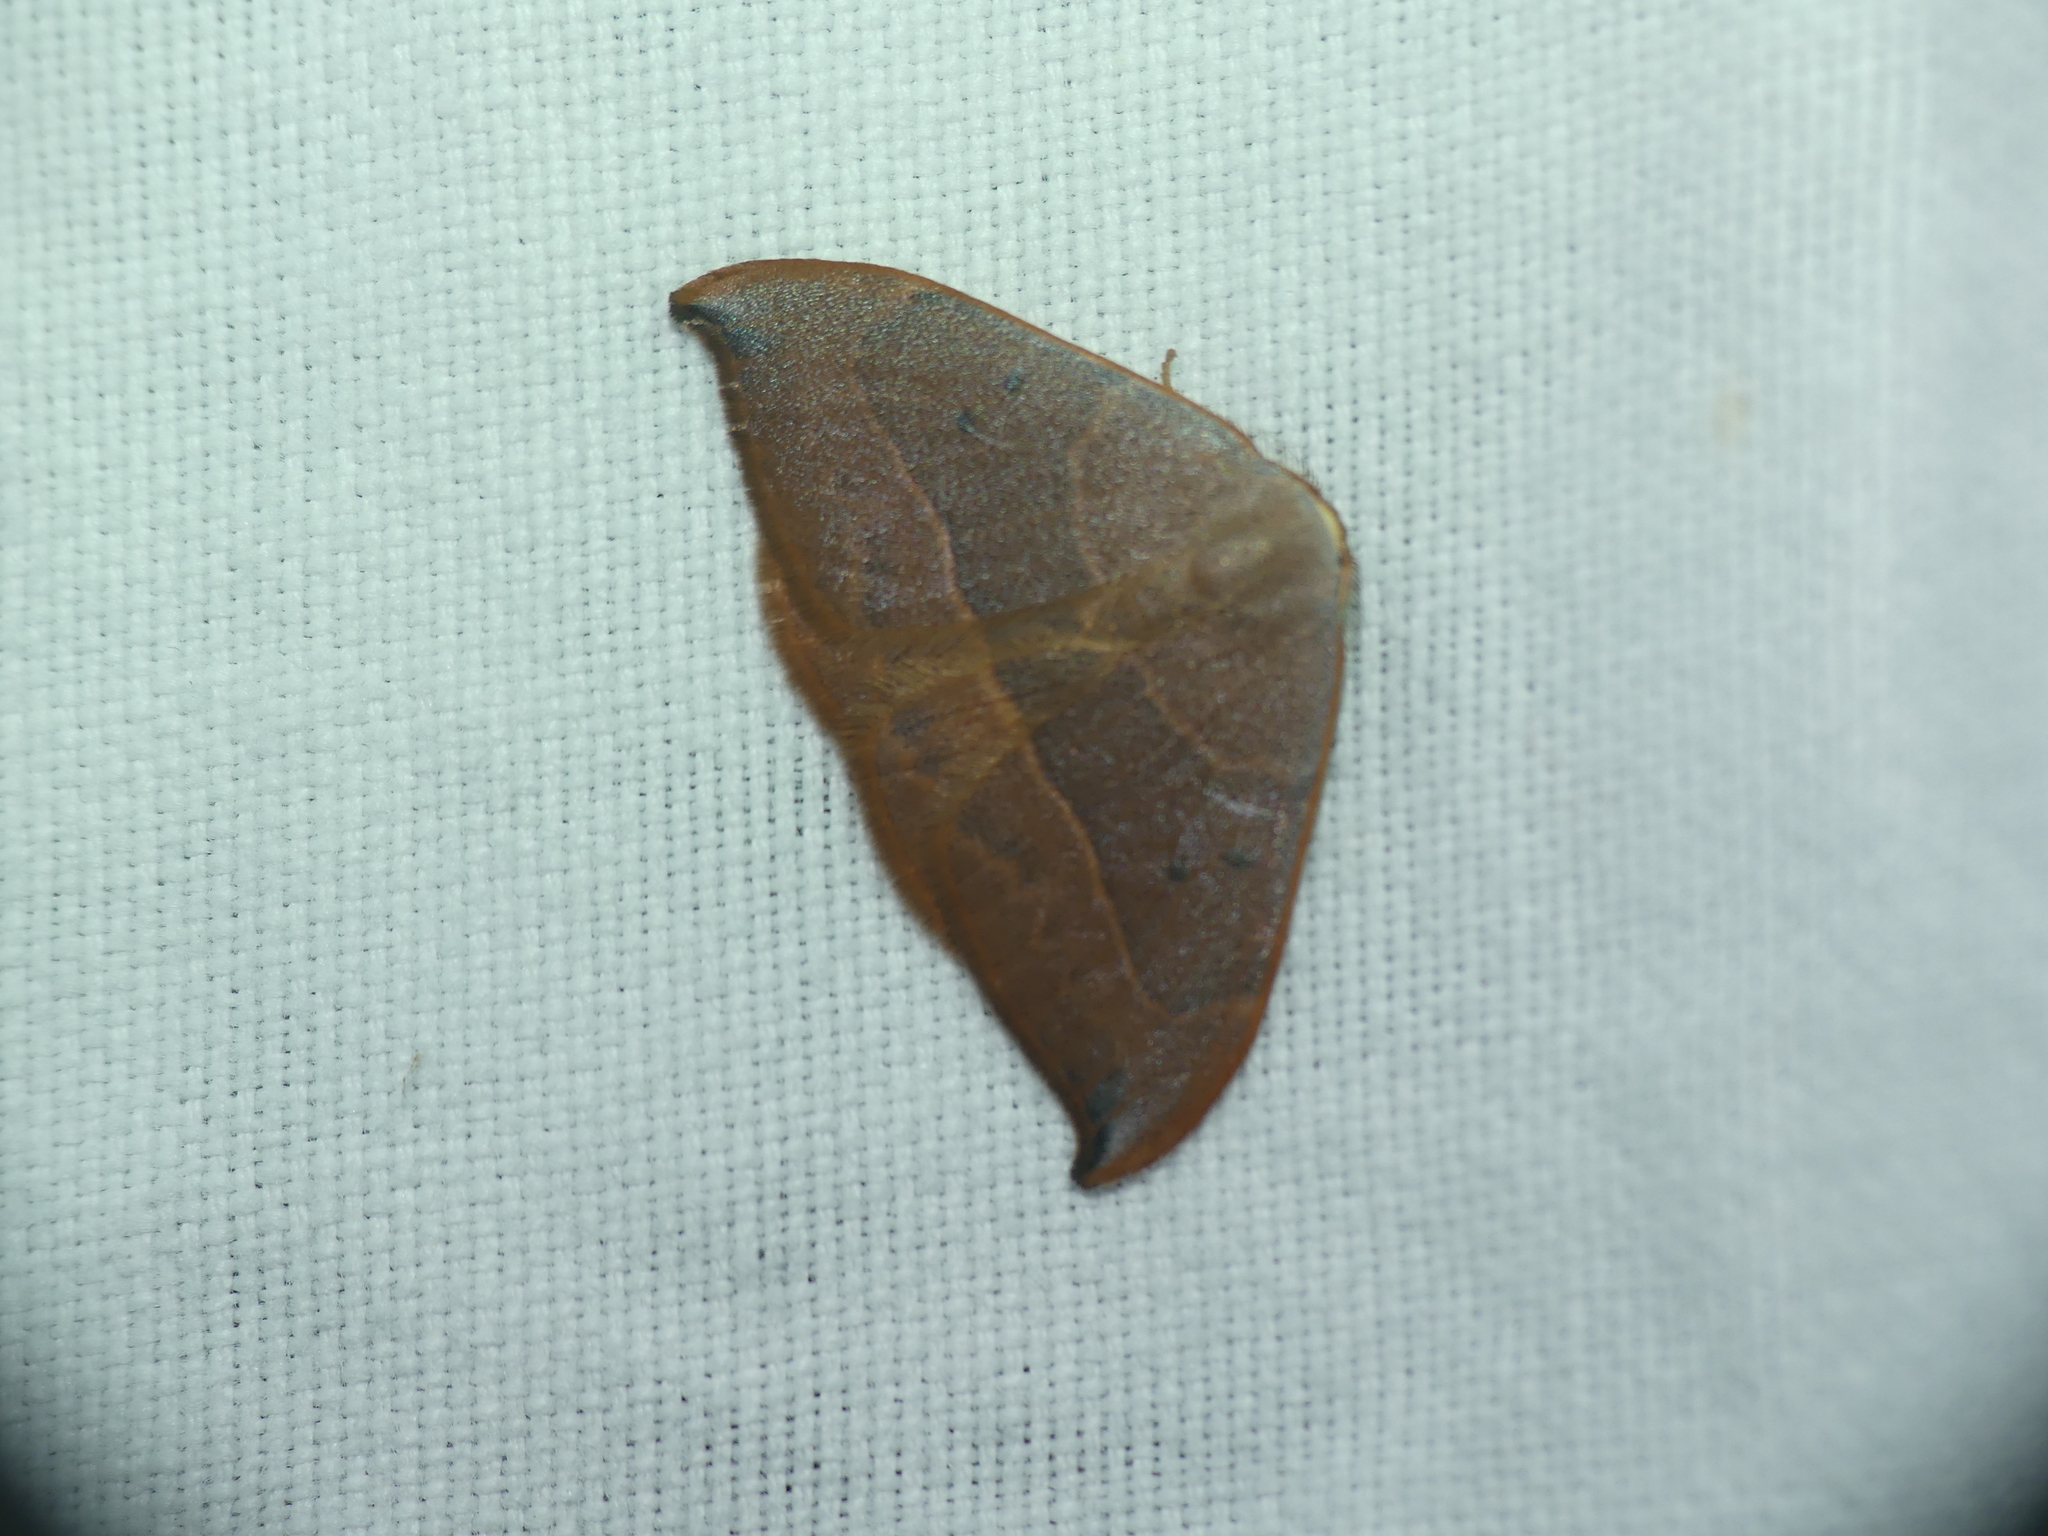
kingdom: Animalia
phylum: Arthropoda
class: Insecta
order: Lepidoptera
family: Drepanidae
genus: Watsonalla
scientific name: Watsonalla uncinula
